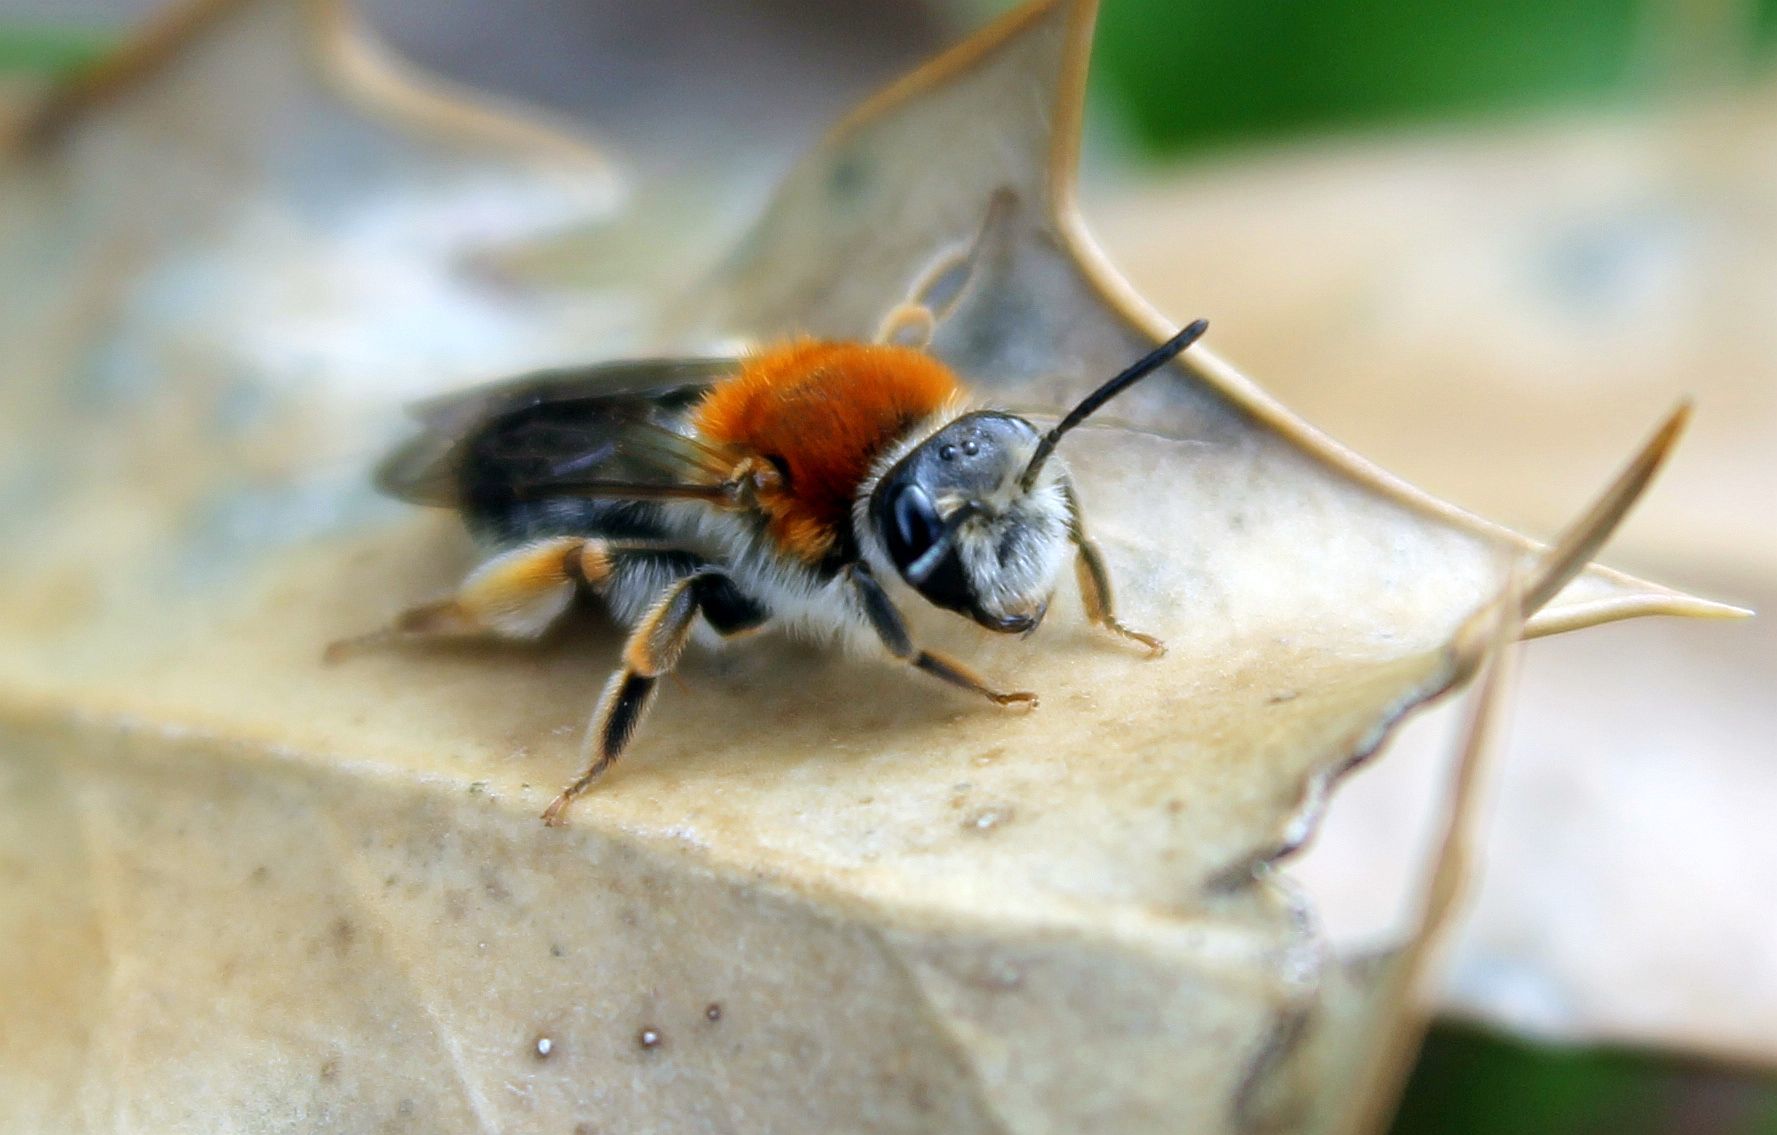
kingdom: Animalia
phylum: Arthropoda
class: Insecta
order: Hymenoptera
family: Andrenidae
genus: Andrena
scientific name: Andrena haemorrhoa
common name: Early mining bee
